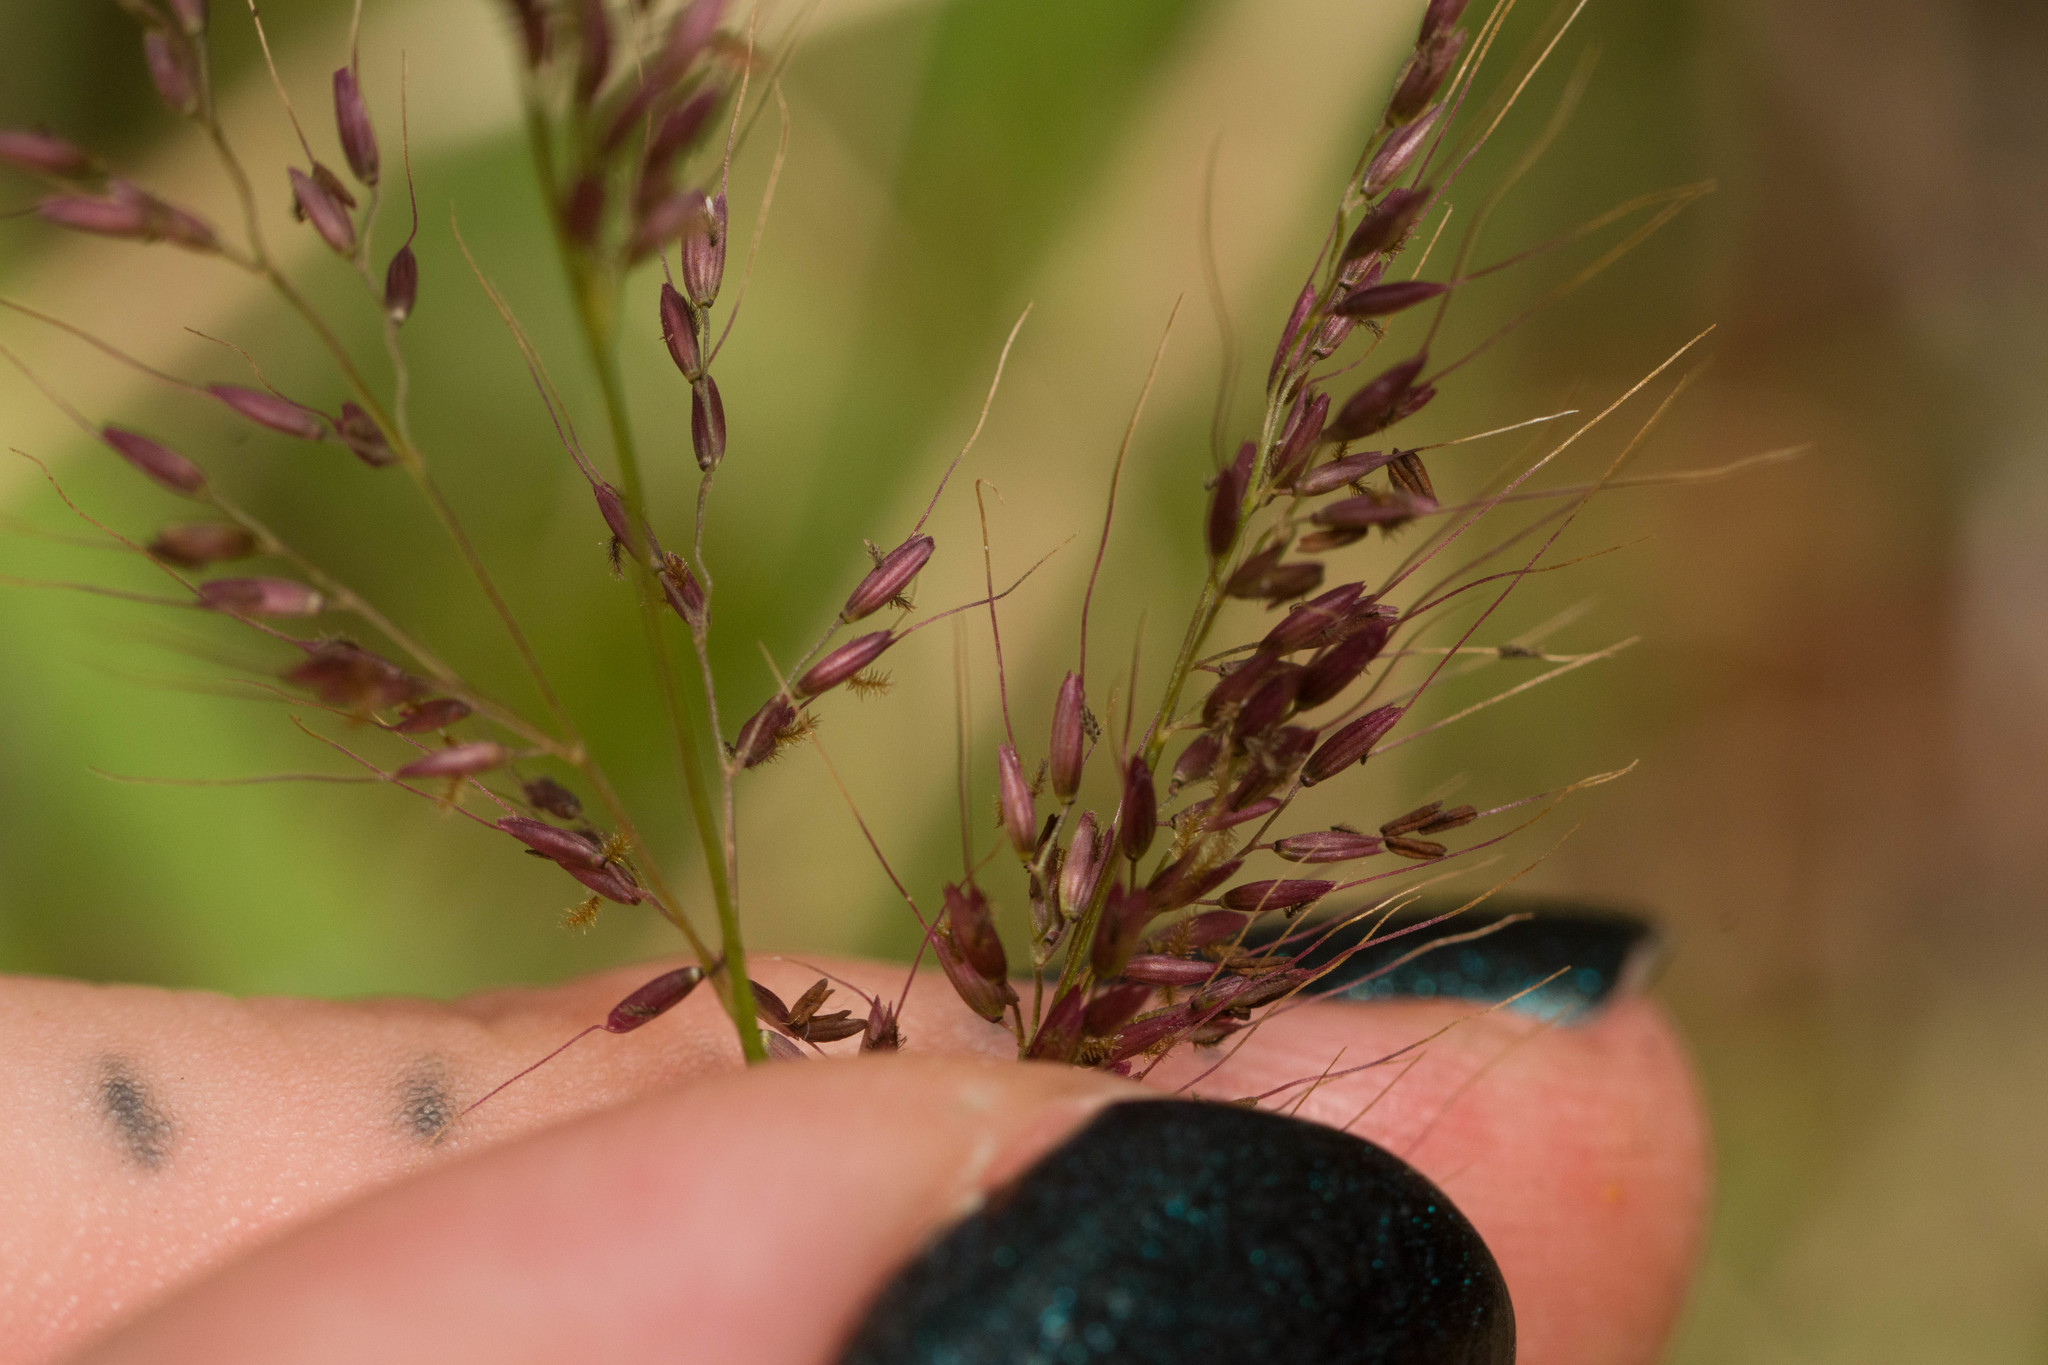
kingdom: Plantae
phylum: Tracheophyta
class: Liliopsida
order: Poales
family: Poaceae
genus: Melinis
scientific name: Melinis minutiflora
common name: Molassesgrass
